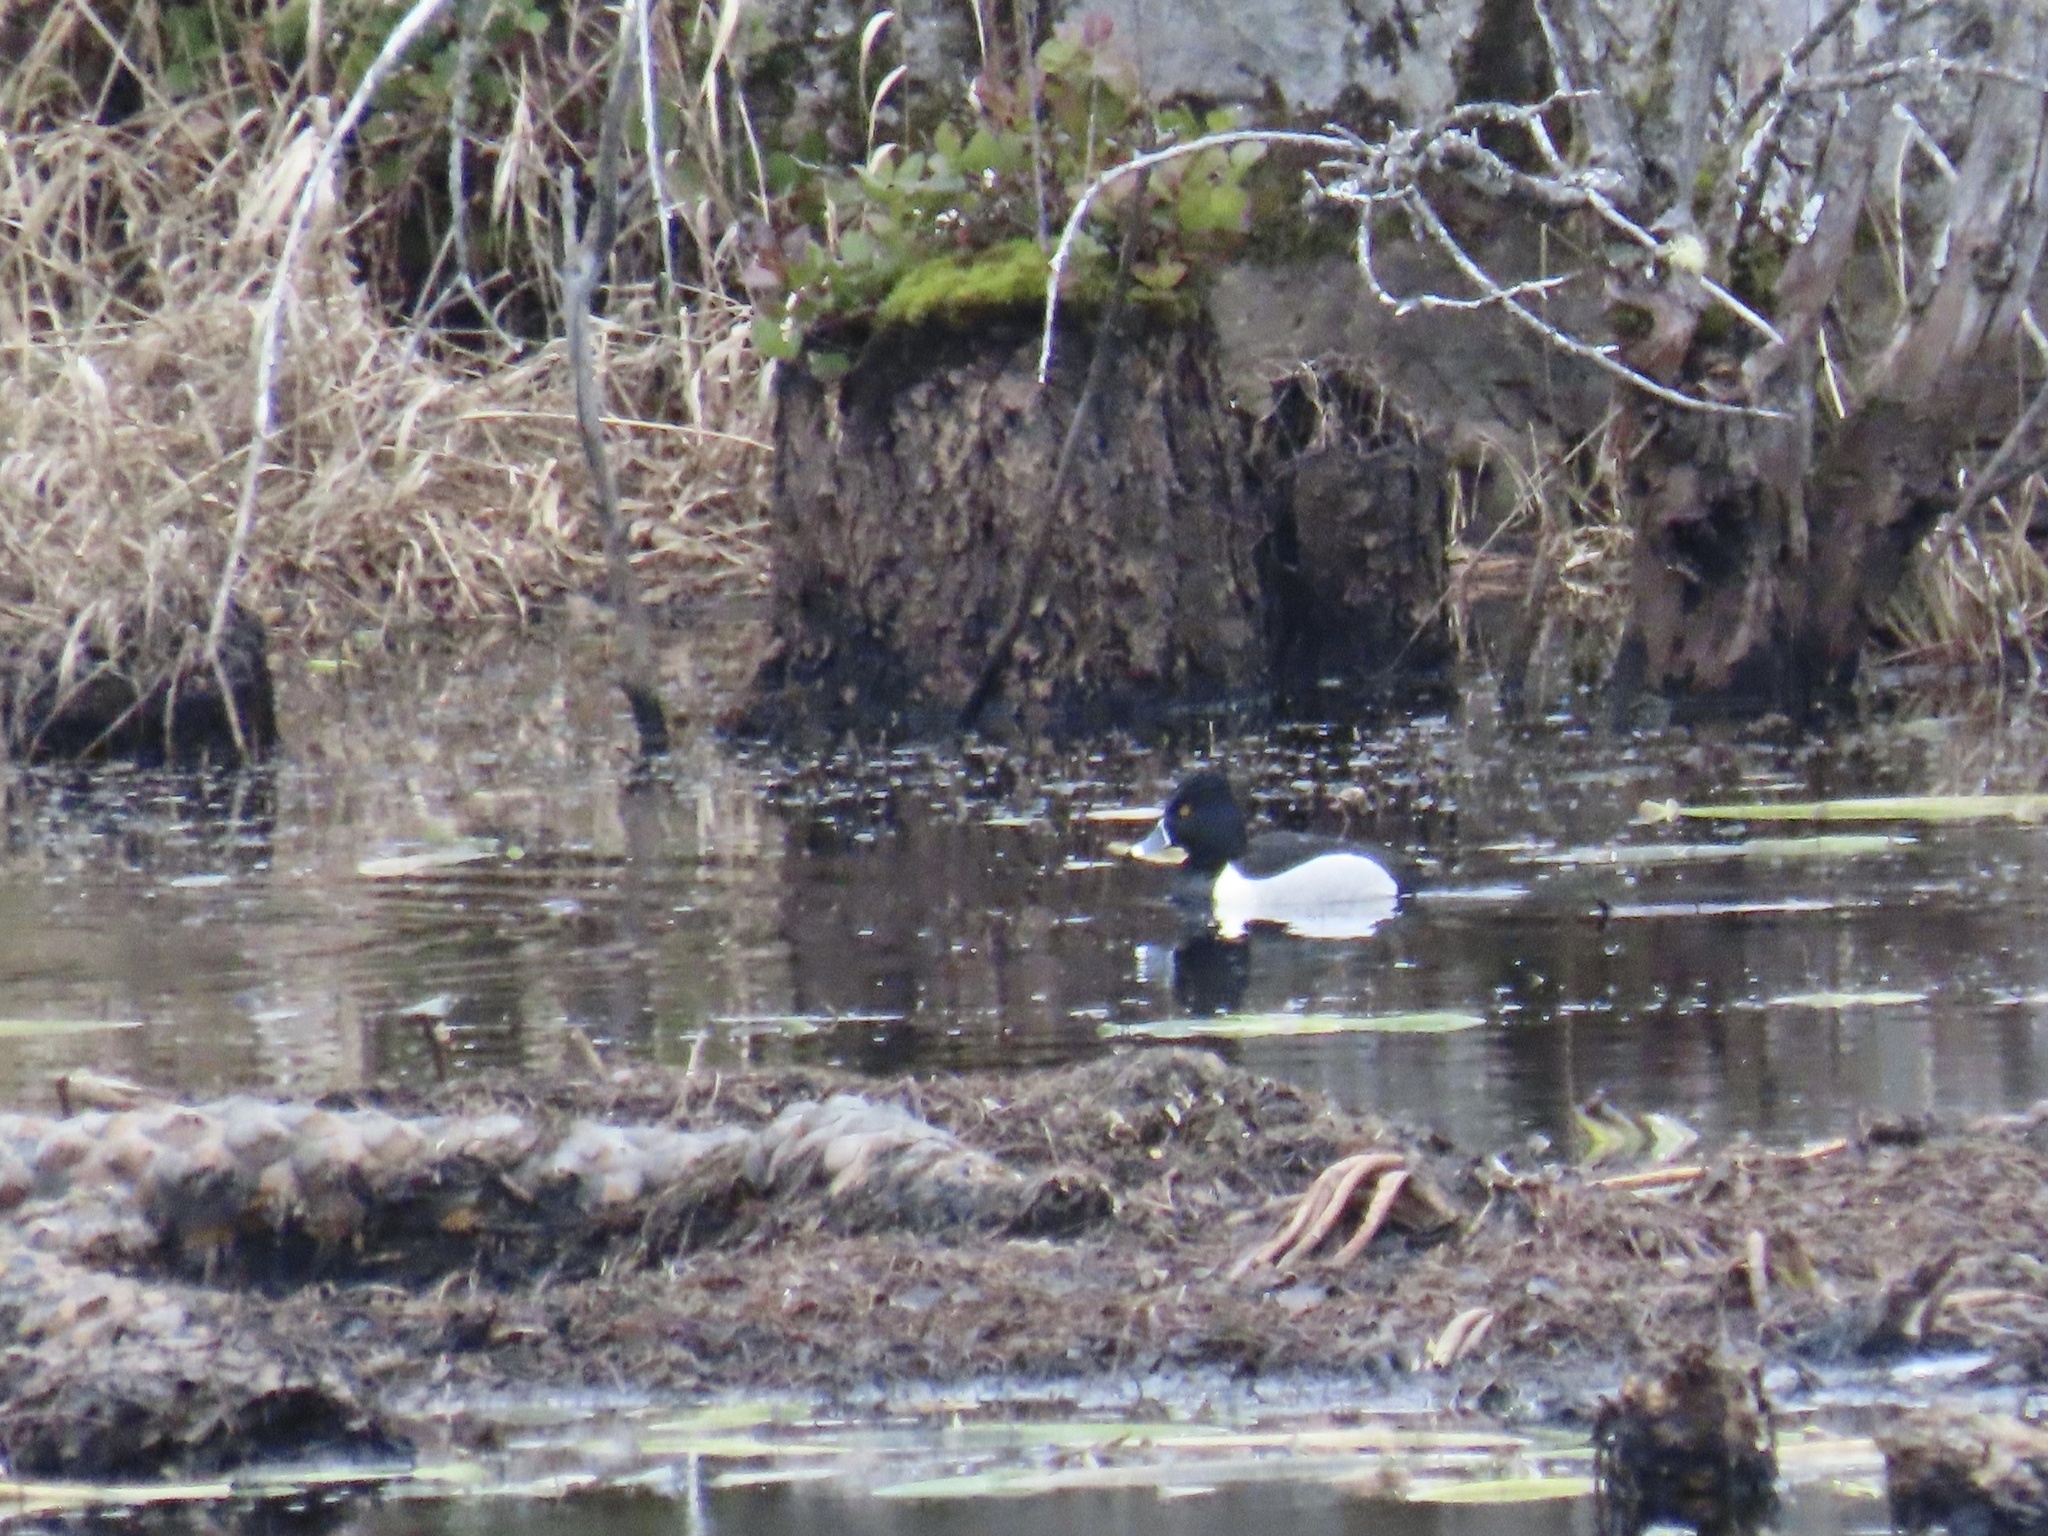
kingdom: Animalia
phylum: Chordata
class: Aves
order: Anseriformes
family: Anatidae
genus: Aythya
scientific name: Aythya collaris
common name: Ring-necked duck
